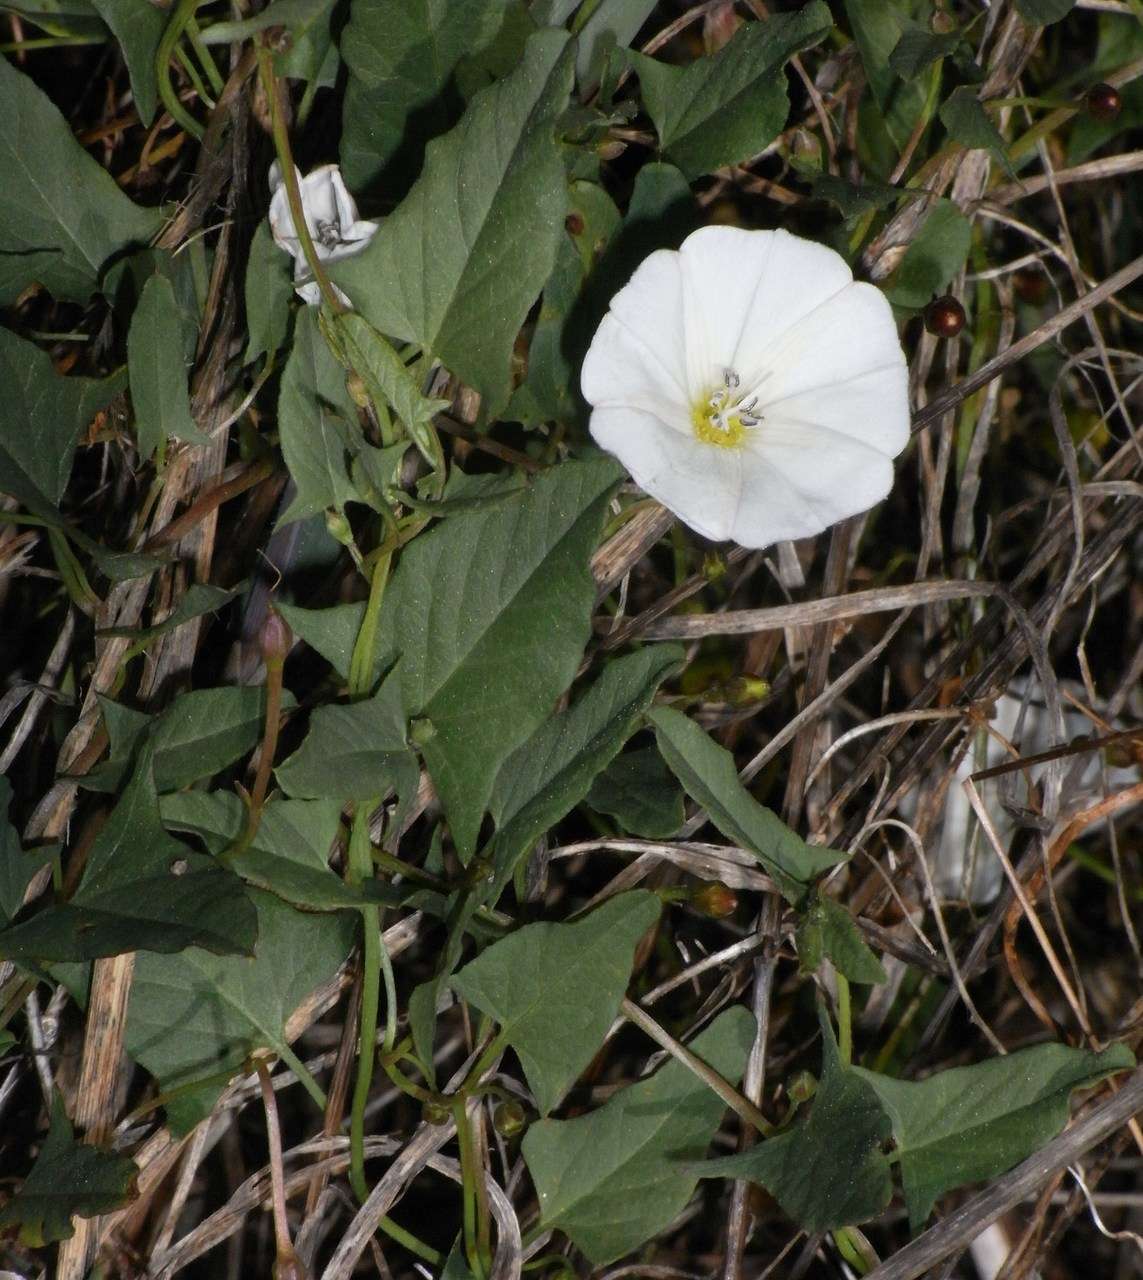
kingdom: Plantae
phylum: Tracheophyta
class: Magnoliopsida
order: Solanales
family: Convolvulaceae
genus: Convolvulus
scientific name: Convolvulus arvensis
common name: Field bindweed
